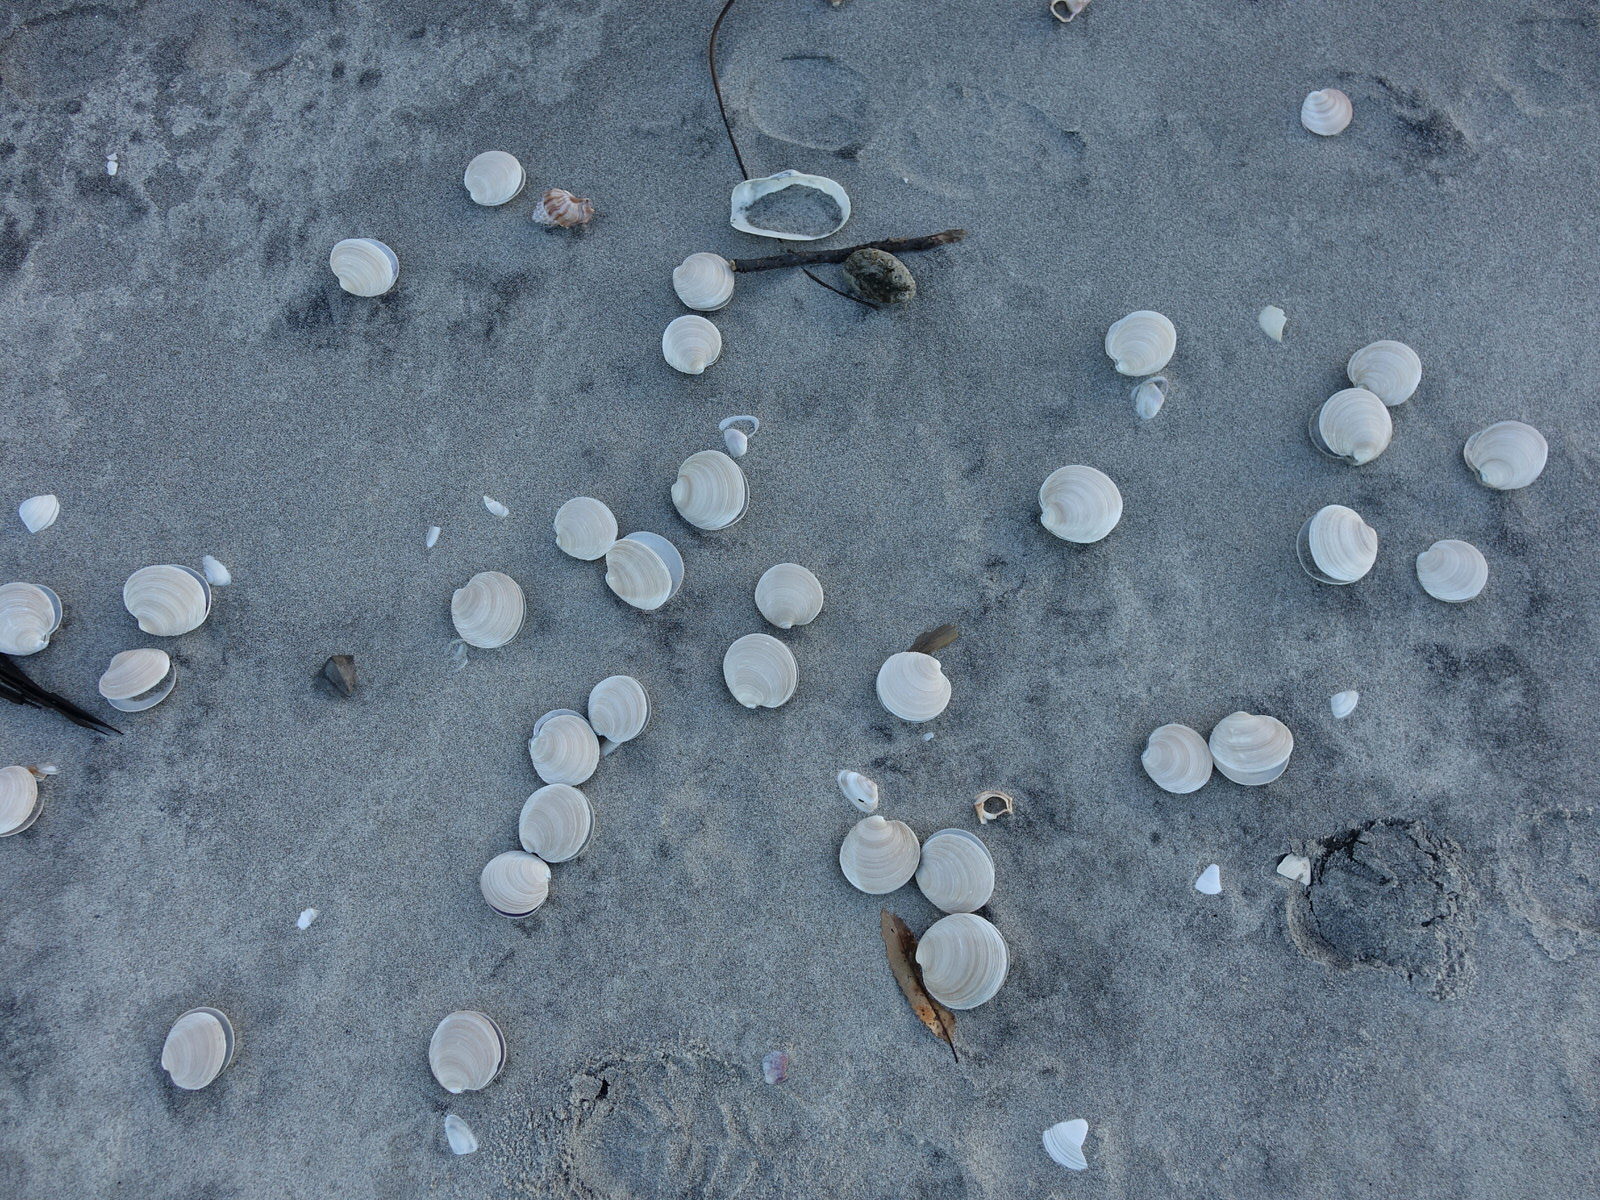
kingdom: Animalia
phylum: Mollusca
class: Bivalvia
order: Venerida
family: Veneridae
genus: Dosinia
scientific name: Dosinia anus
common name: Old-woman dosinia
